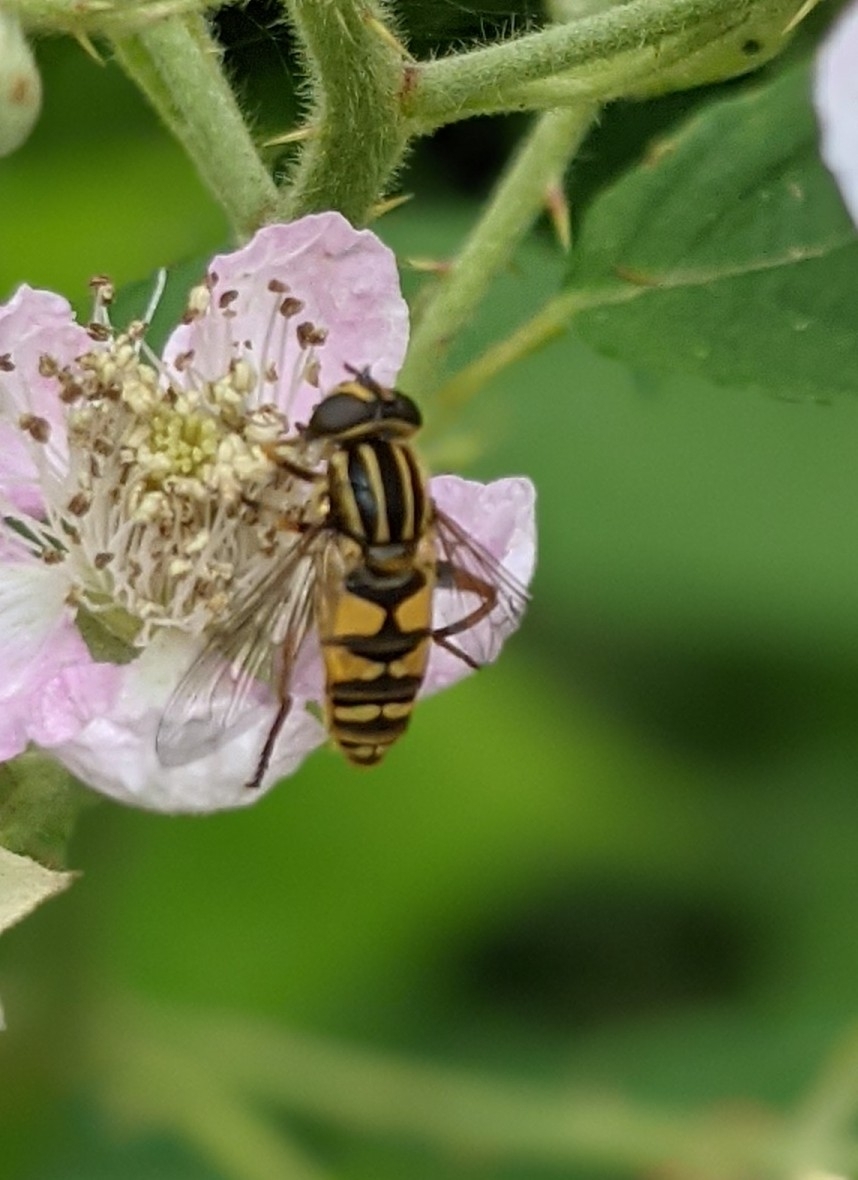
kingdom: Animalia
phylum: Arthropoda
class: Insecta
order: Diptera
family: Syrphidae
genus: Helophilus
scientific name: Helophilus pendulus
